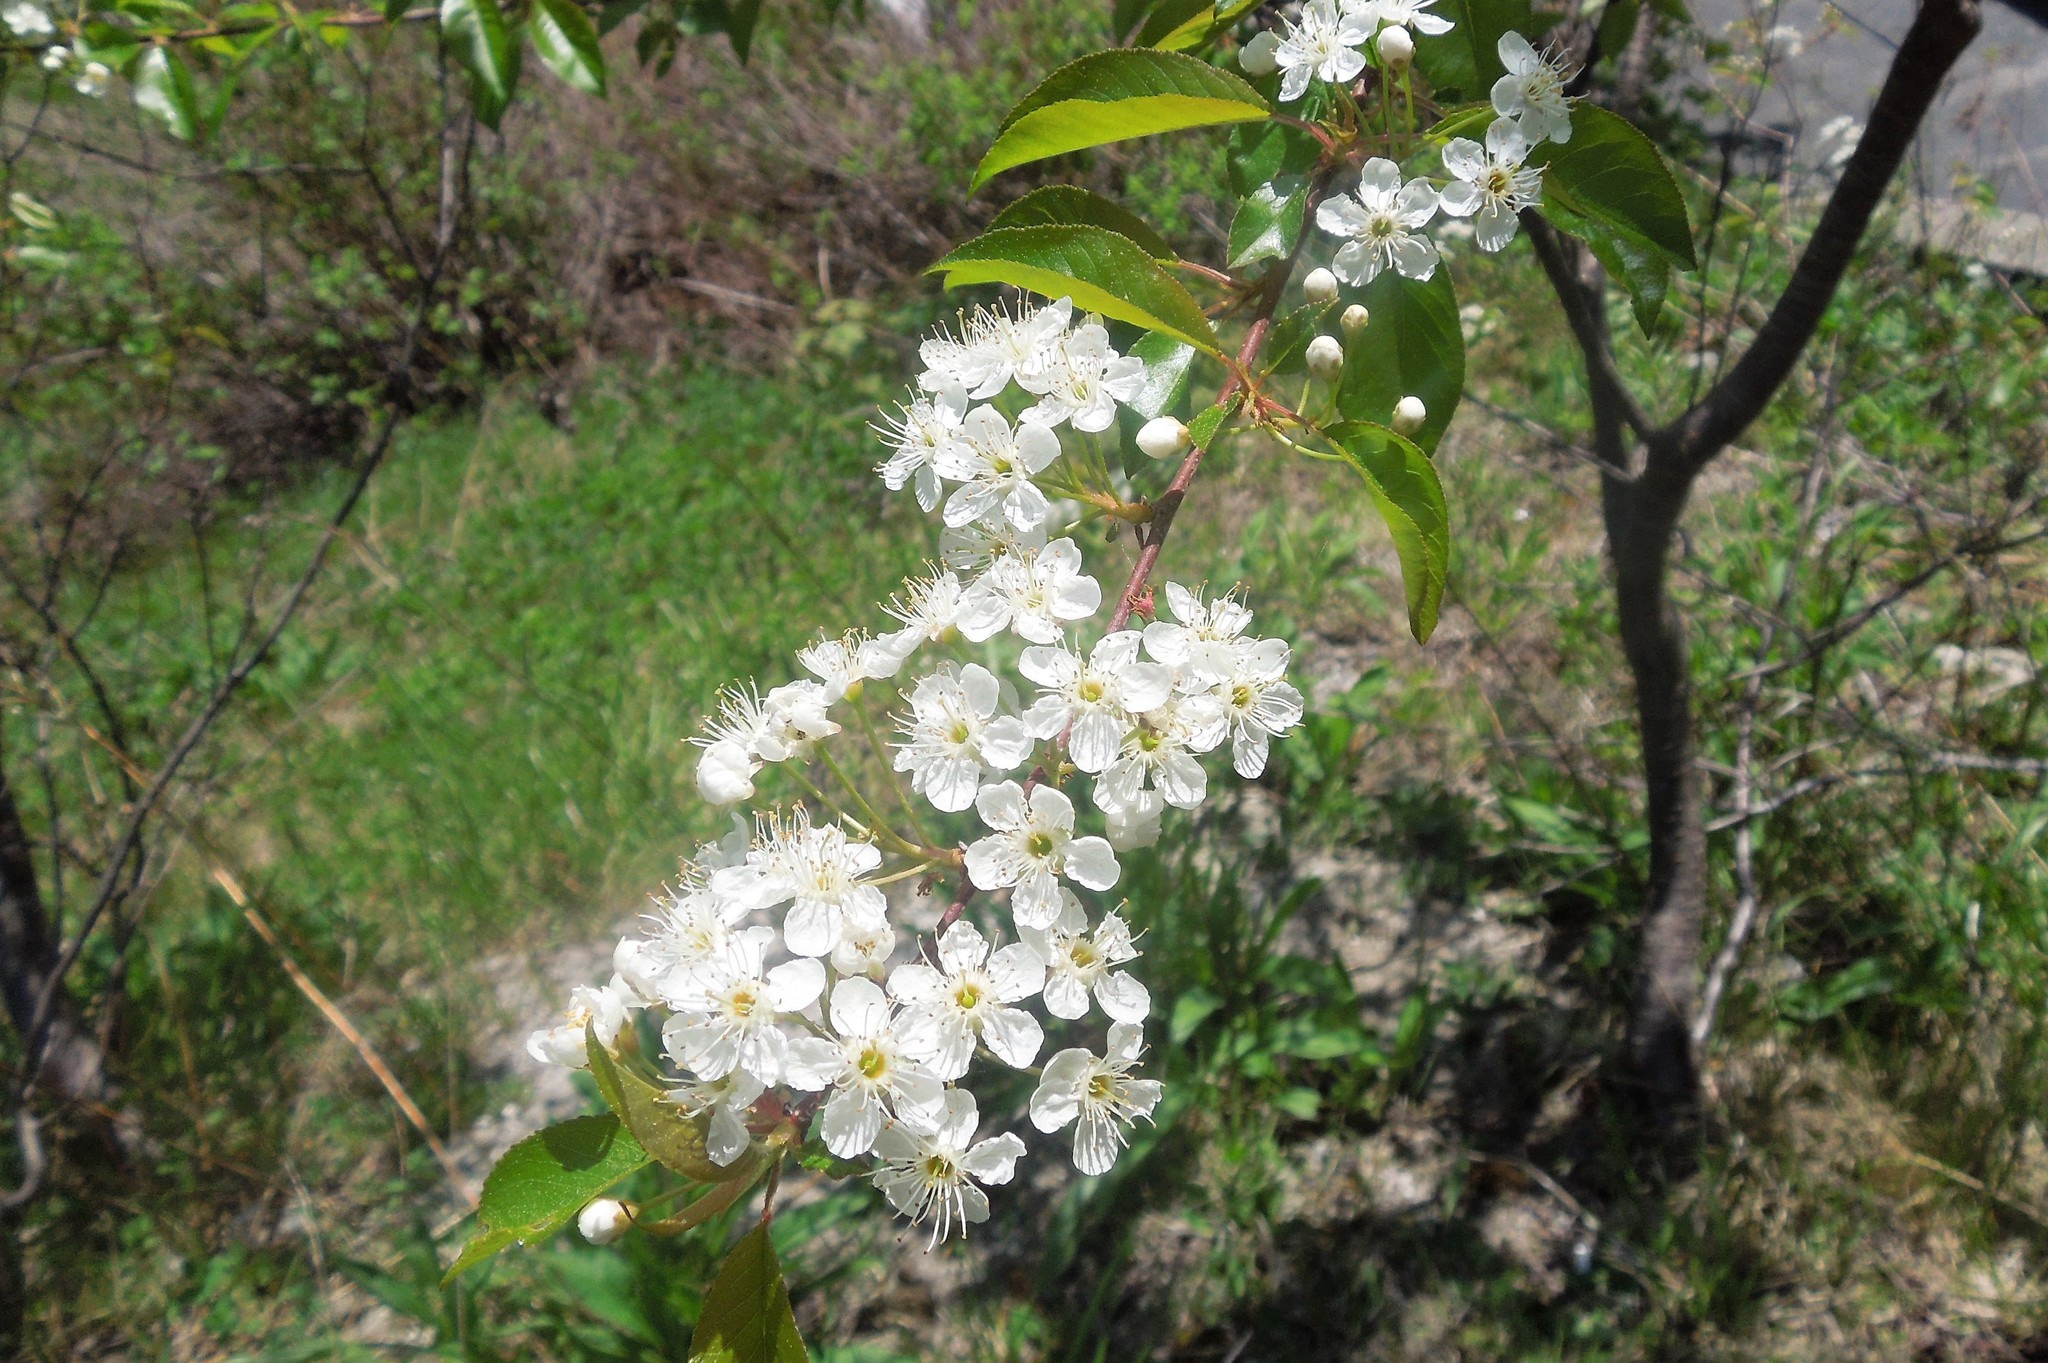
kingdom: Plantae
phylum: Tracheophyta
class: Magnoliopsida
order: Rosales
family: Rosaceae
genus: Prunus
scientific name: Prunus pensylvanica
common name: Pin cherry
